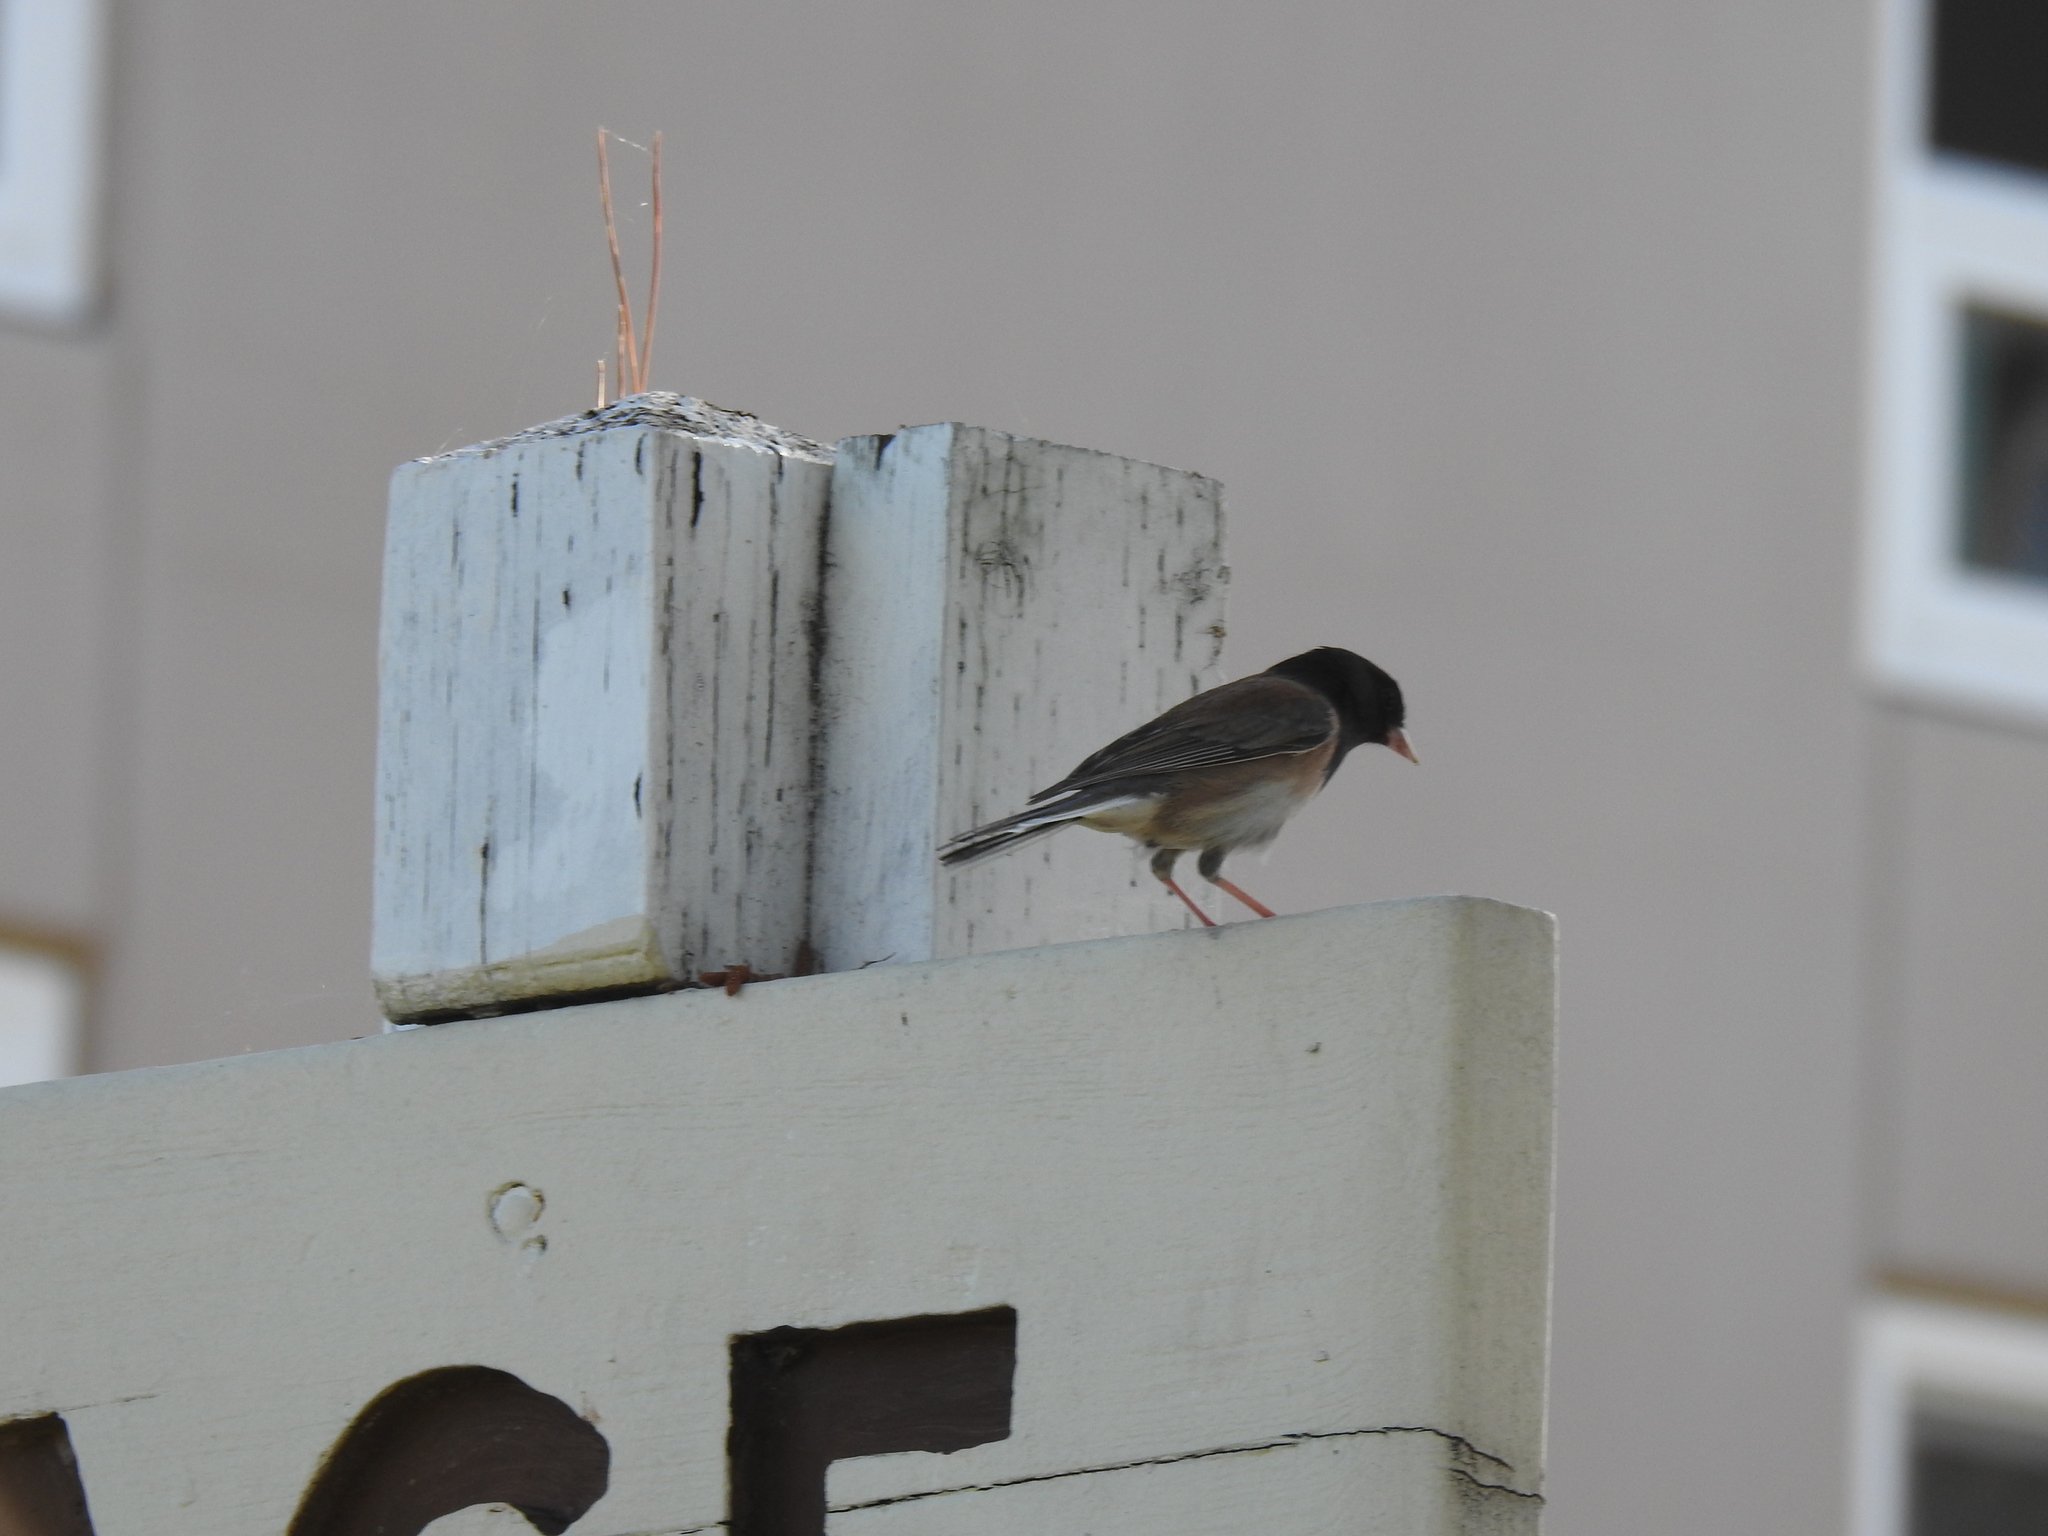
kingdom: Animalia
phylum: Chordata
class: Aves
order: Passeriformes
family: Passerellidae
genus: Junco
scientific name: Junco hyemalis
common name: Dark-eyed junco
